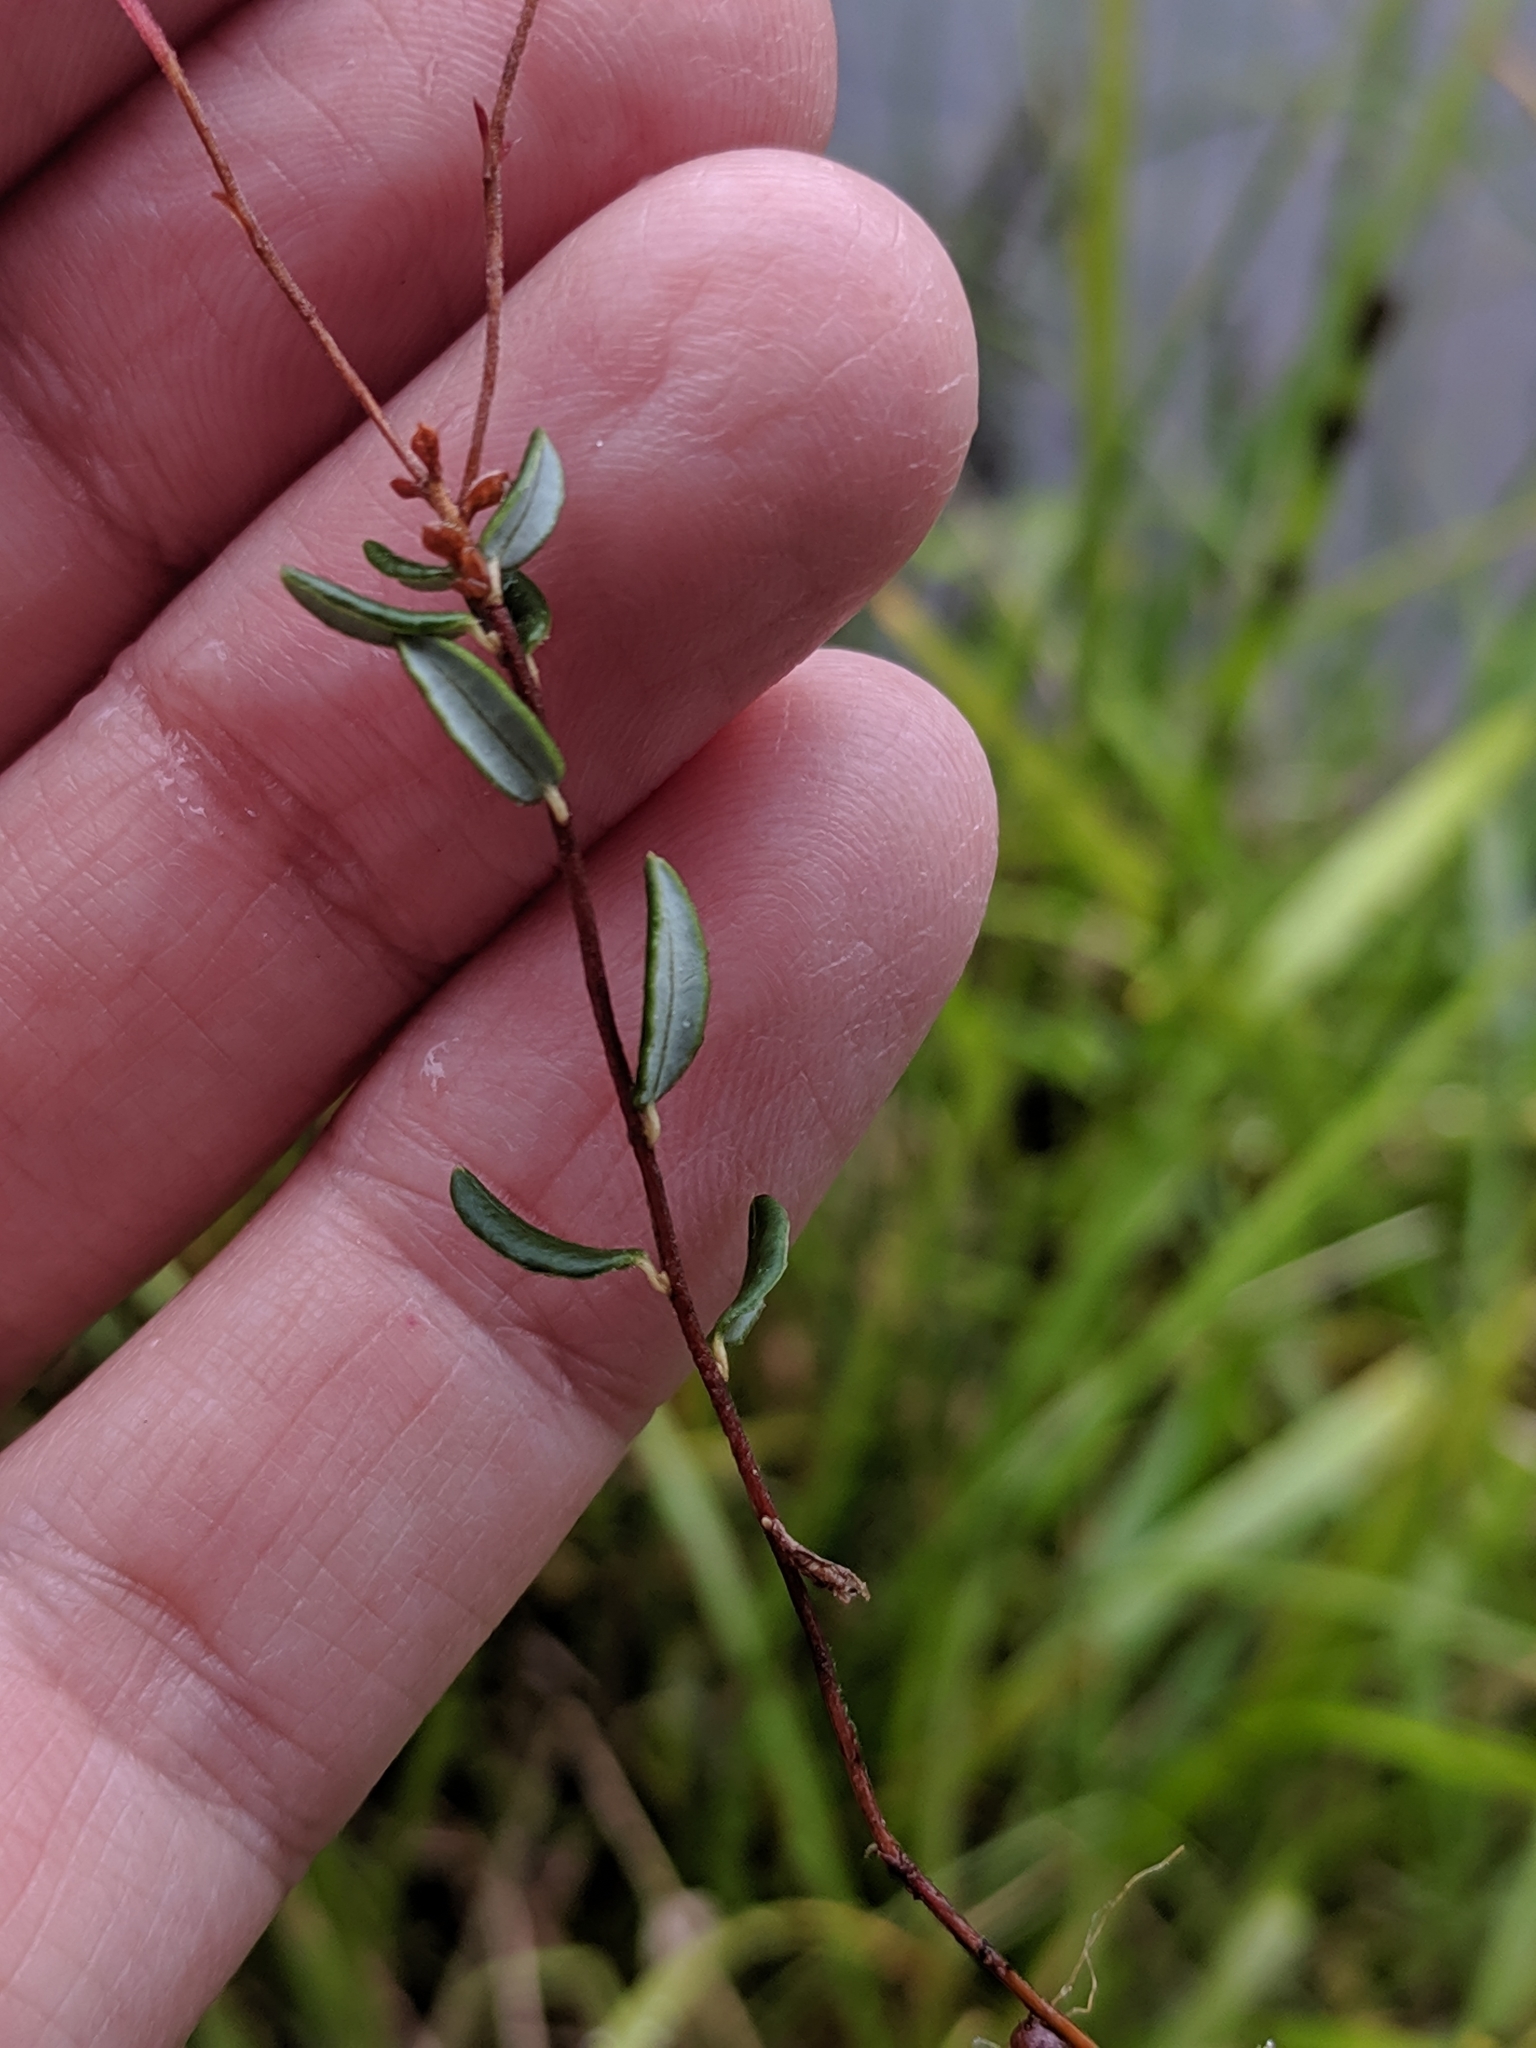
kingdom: Plantae
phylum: Tracheophyta
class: Magnoliopsida
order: Ericales
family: Ericaceae
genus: Vaccinium
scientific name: Vaccinium oxycoccos
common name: Cranberry
